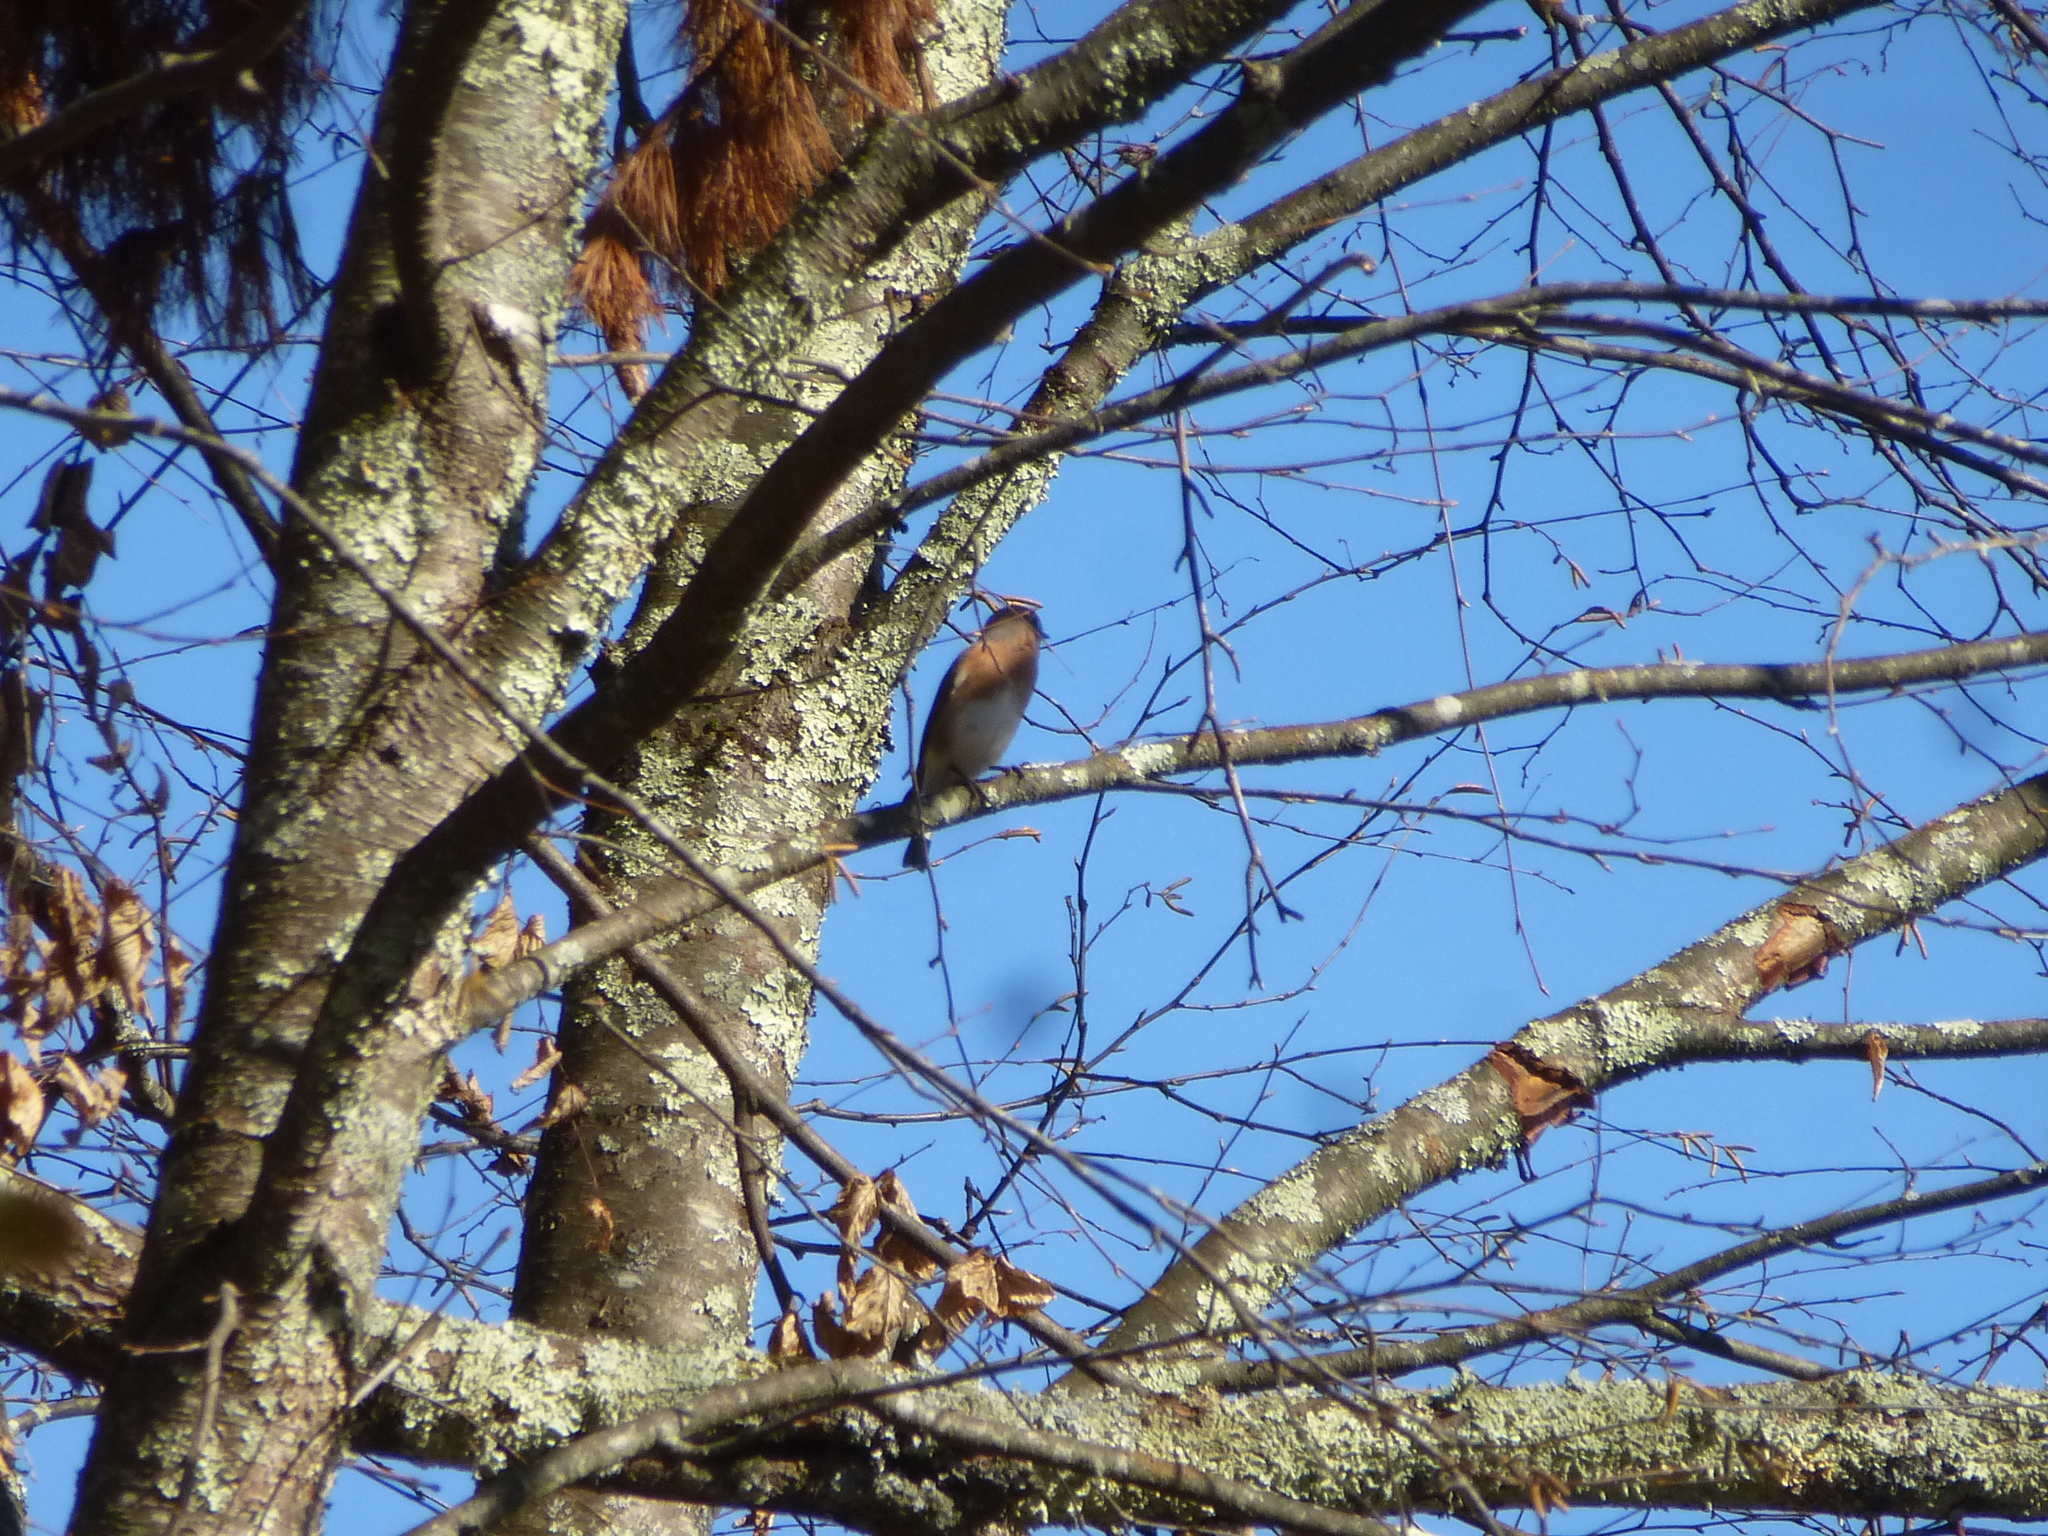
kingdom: Animalia
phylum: Chordata
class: Aves
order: Passeriformes
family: Turdidae
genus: Sialia
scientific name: Sialia sialis
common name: Eastern bluebird
